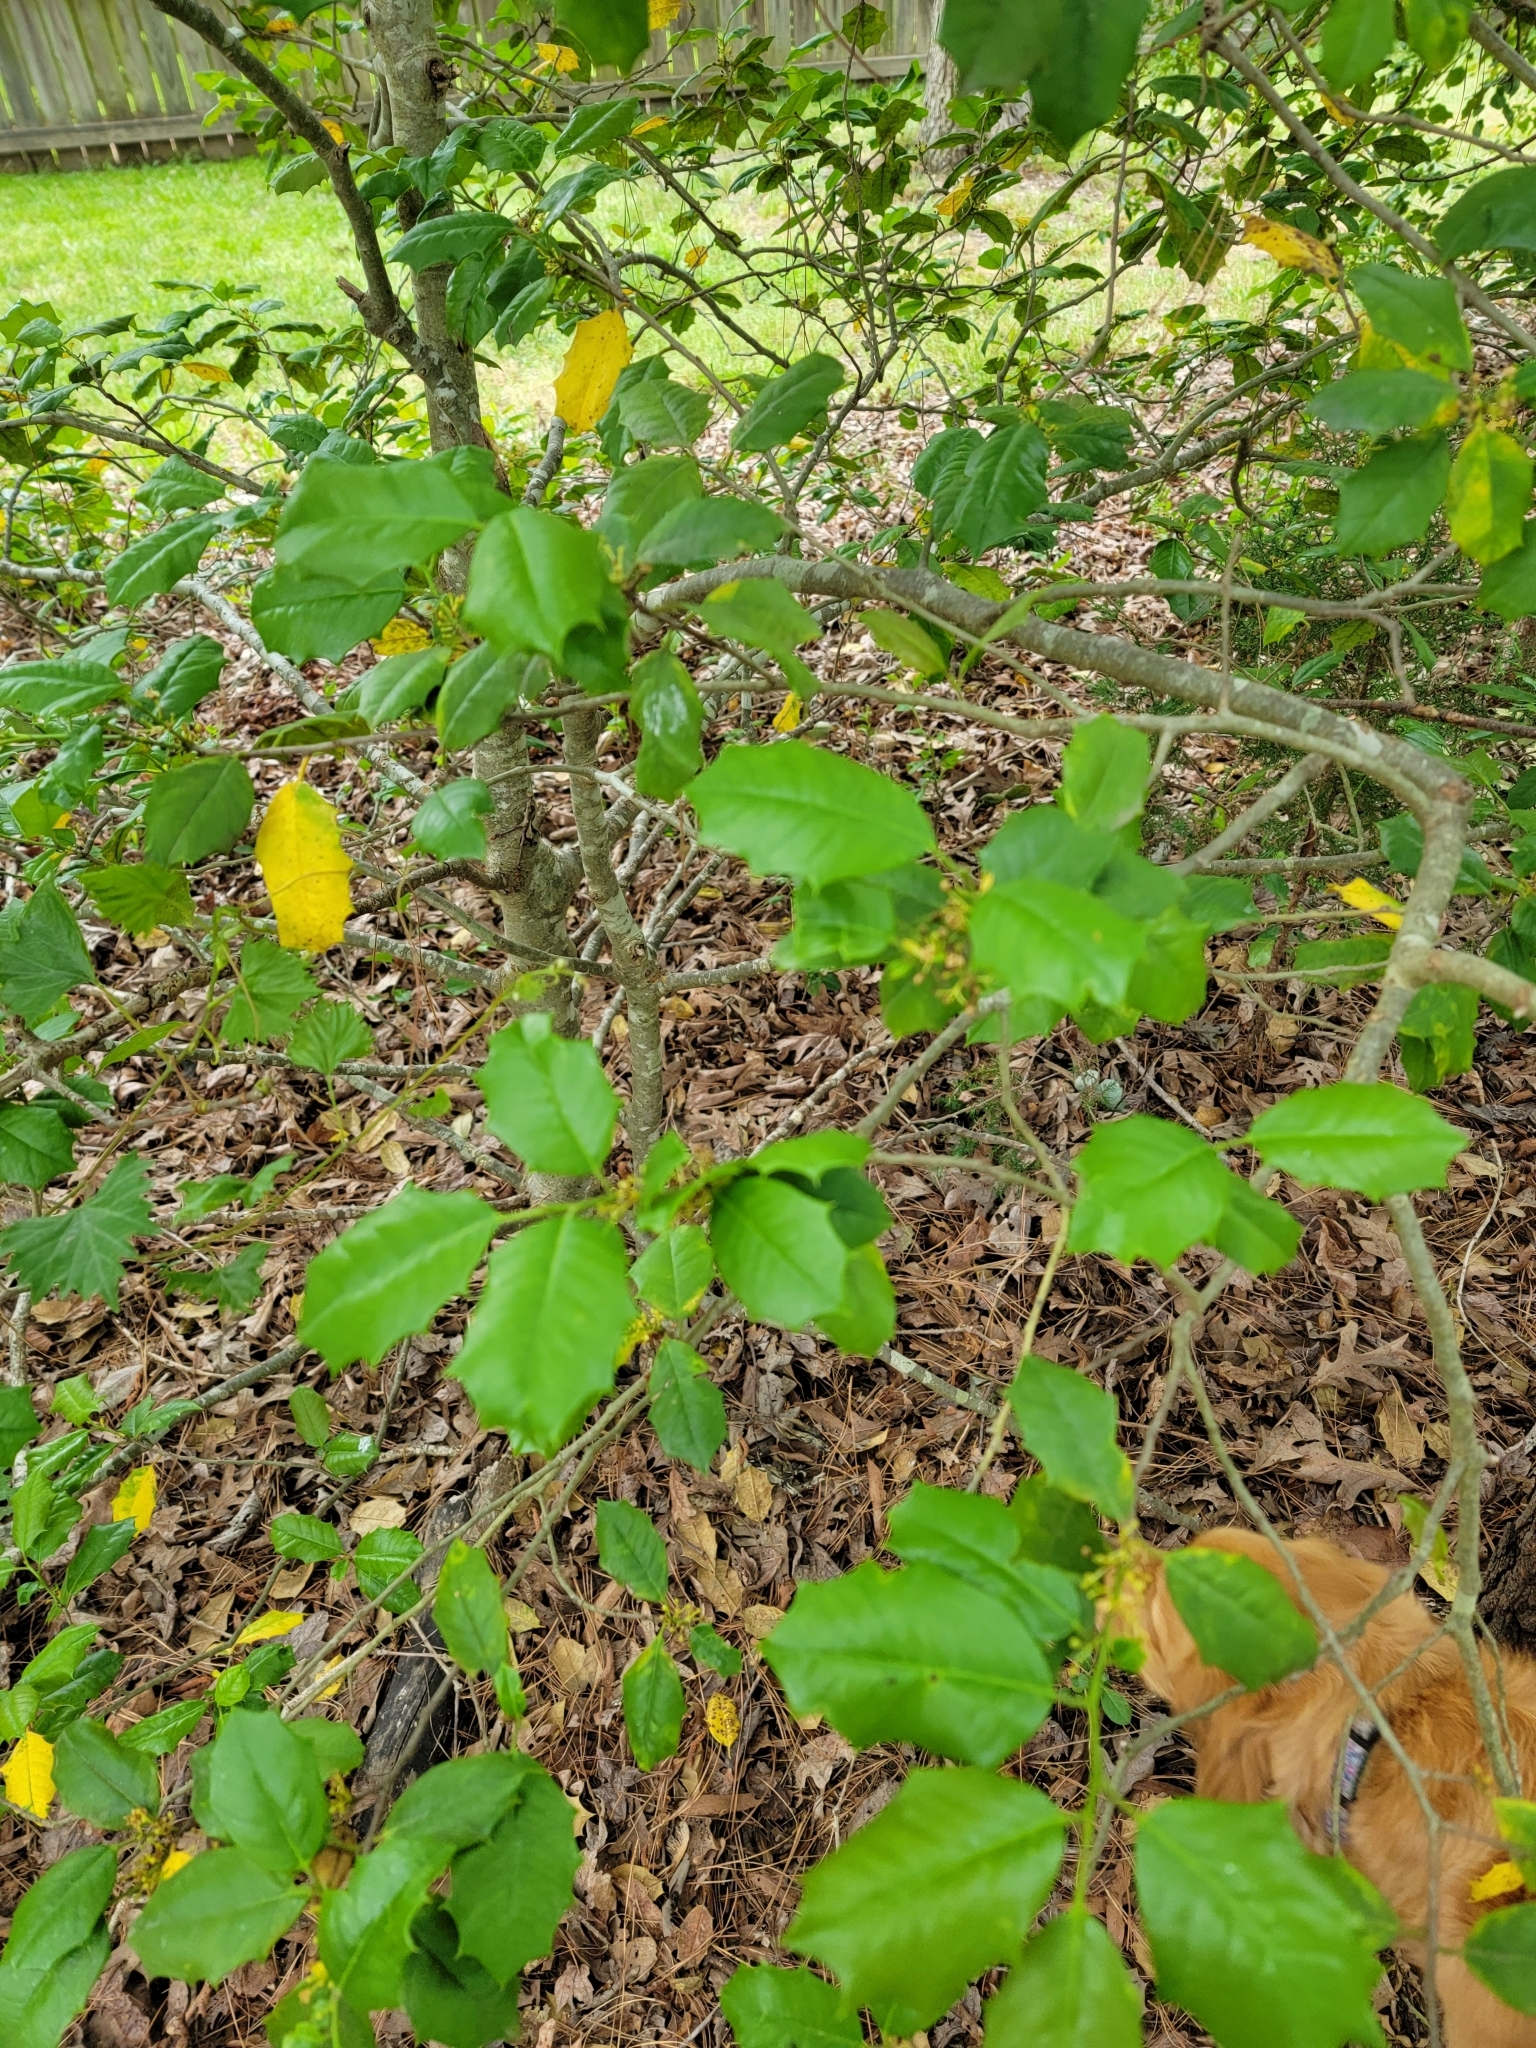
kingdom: Plantae
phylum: Tracheophyta
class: Magnoliopsida
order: Aquifoliales
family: Aquifoliaceae
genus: Ilex
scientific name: Ilex opaca
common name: American holly
